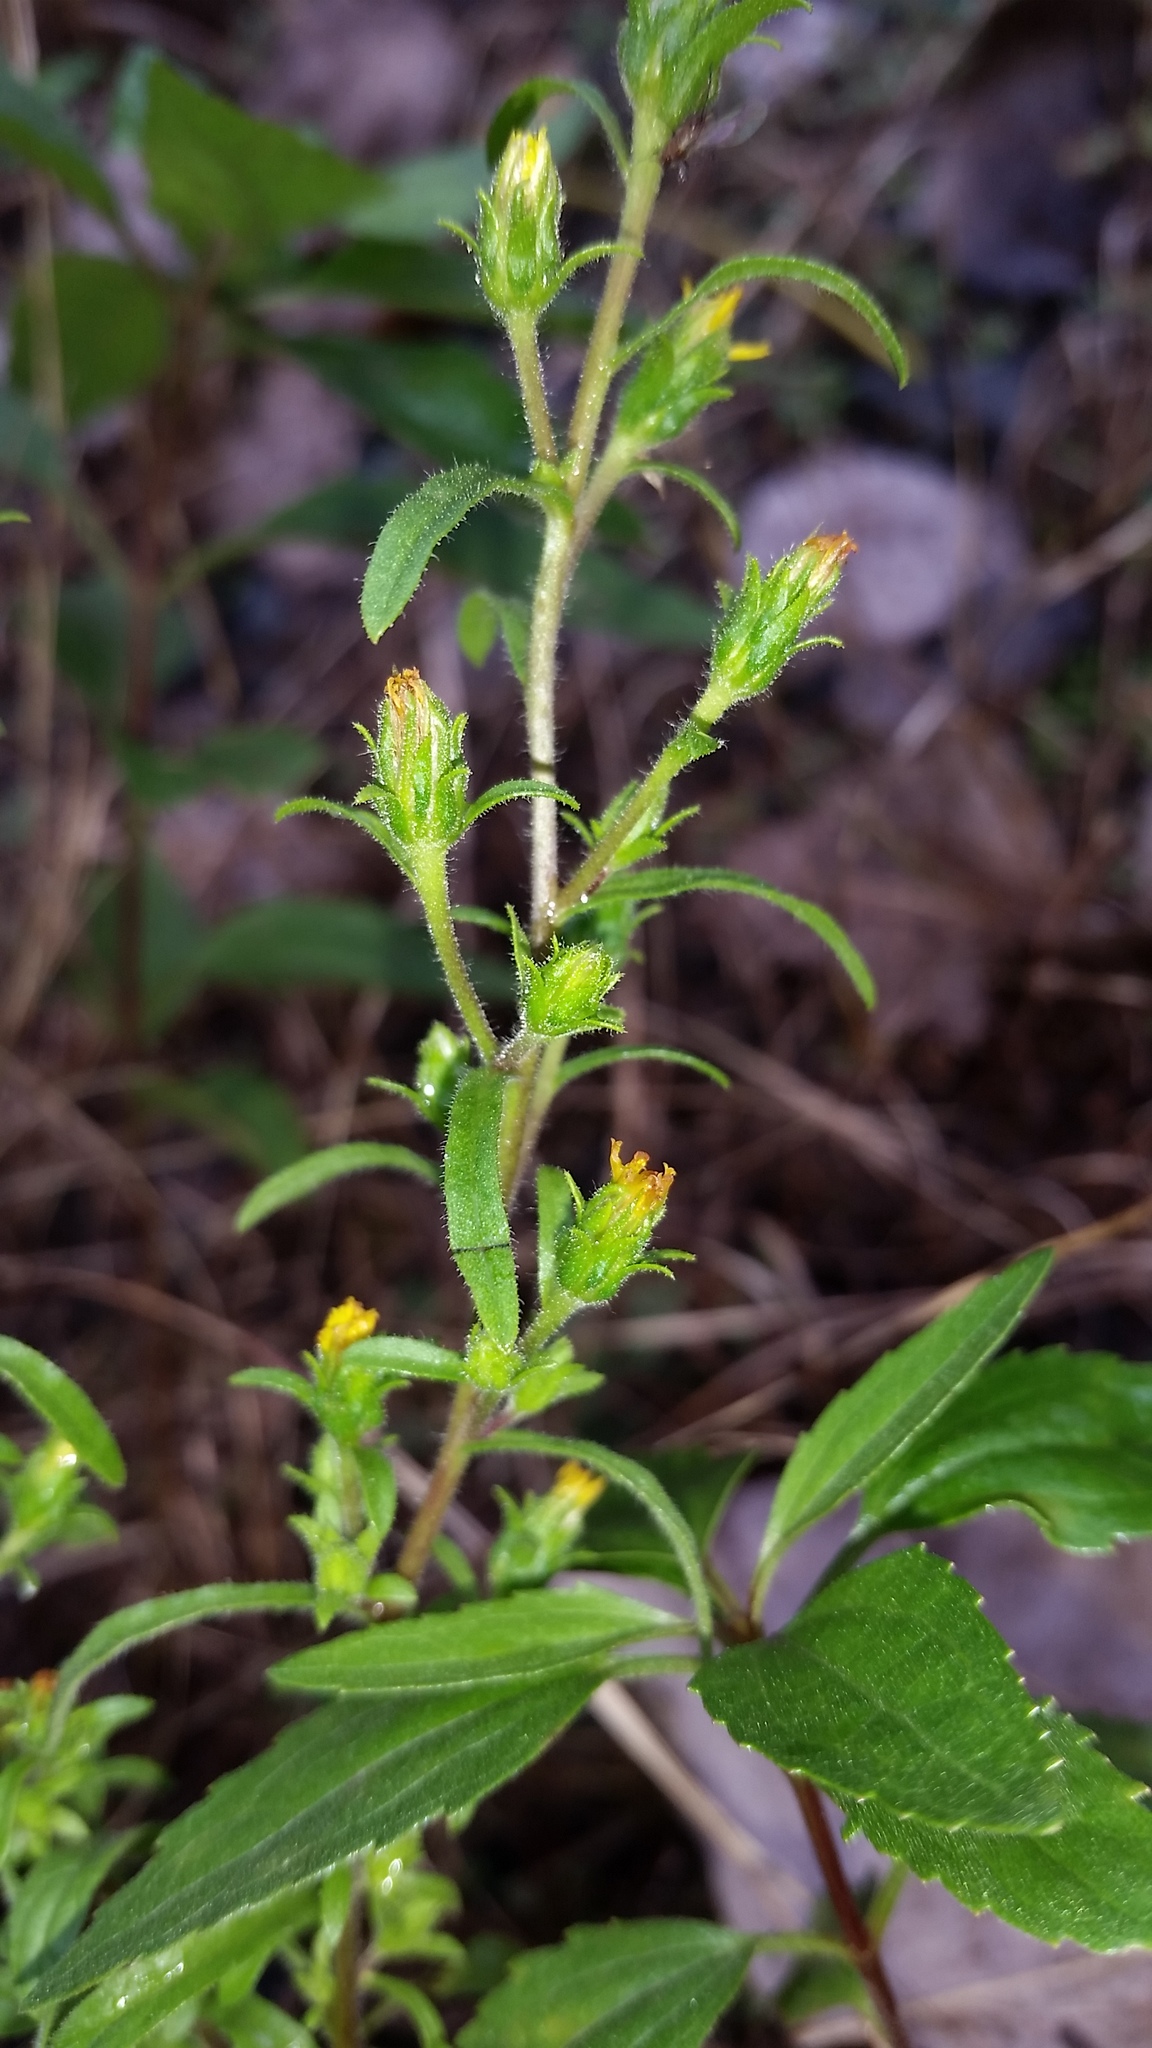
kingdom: Plantae
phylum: Tracheophyta
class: Magnoliopsida
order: Asterales
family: Asteraceae
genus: Dittrichia
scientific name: Dittrichia graveolens
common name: Stinking fleabane
